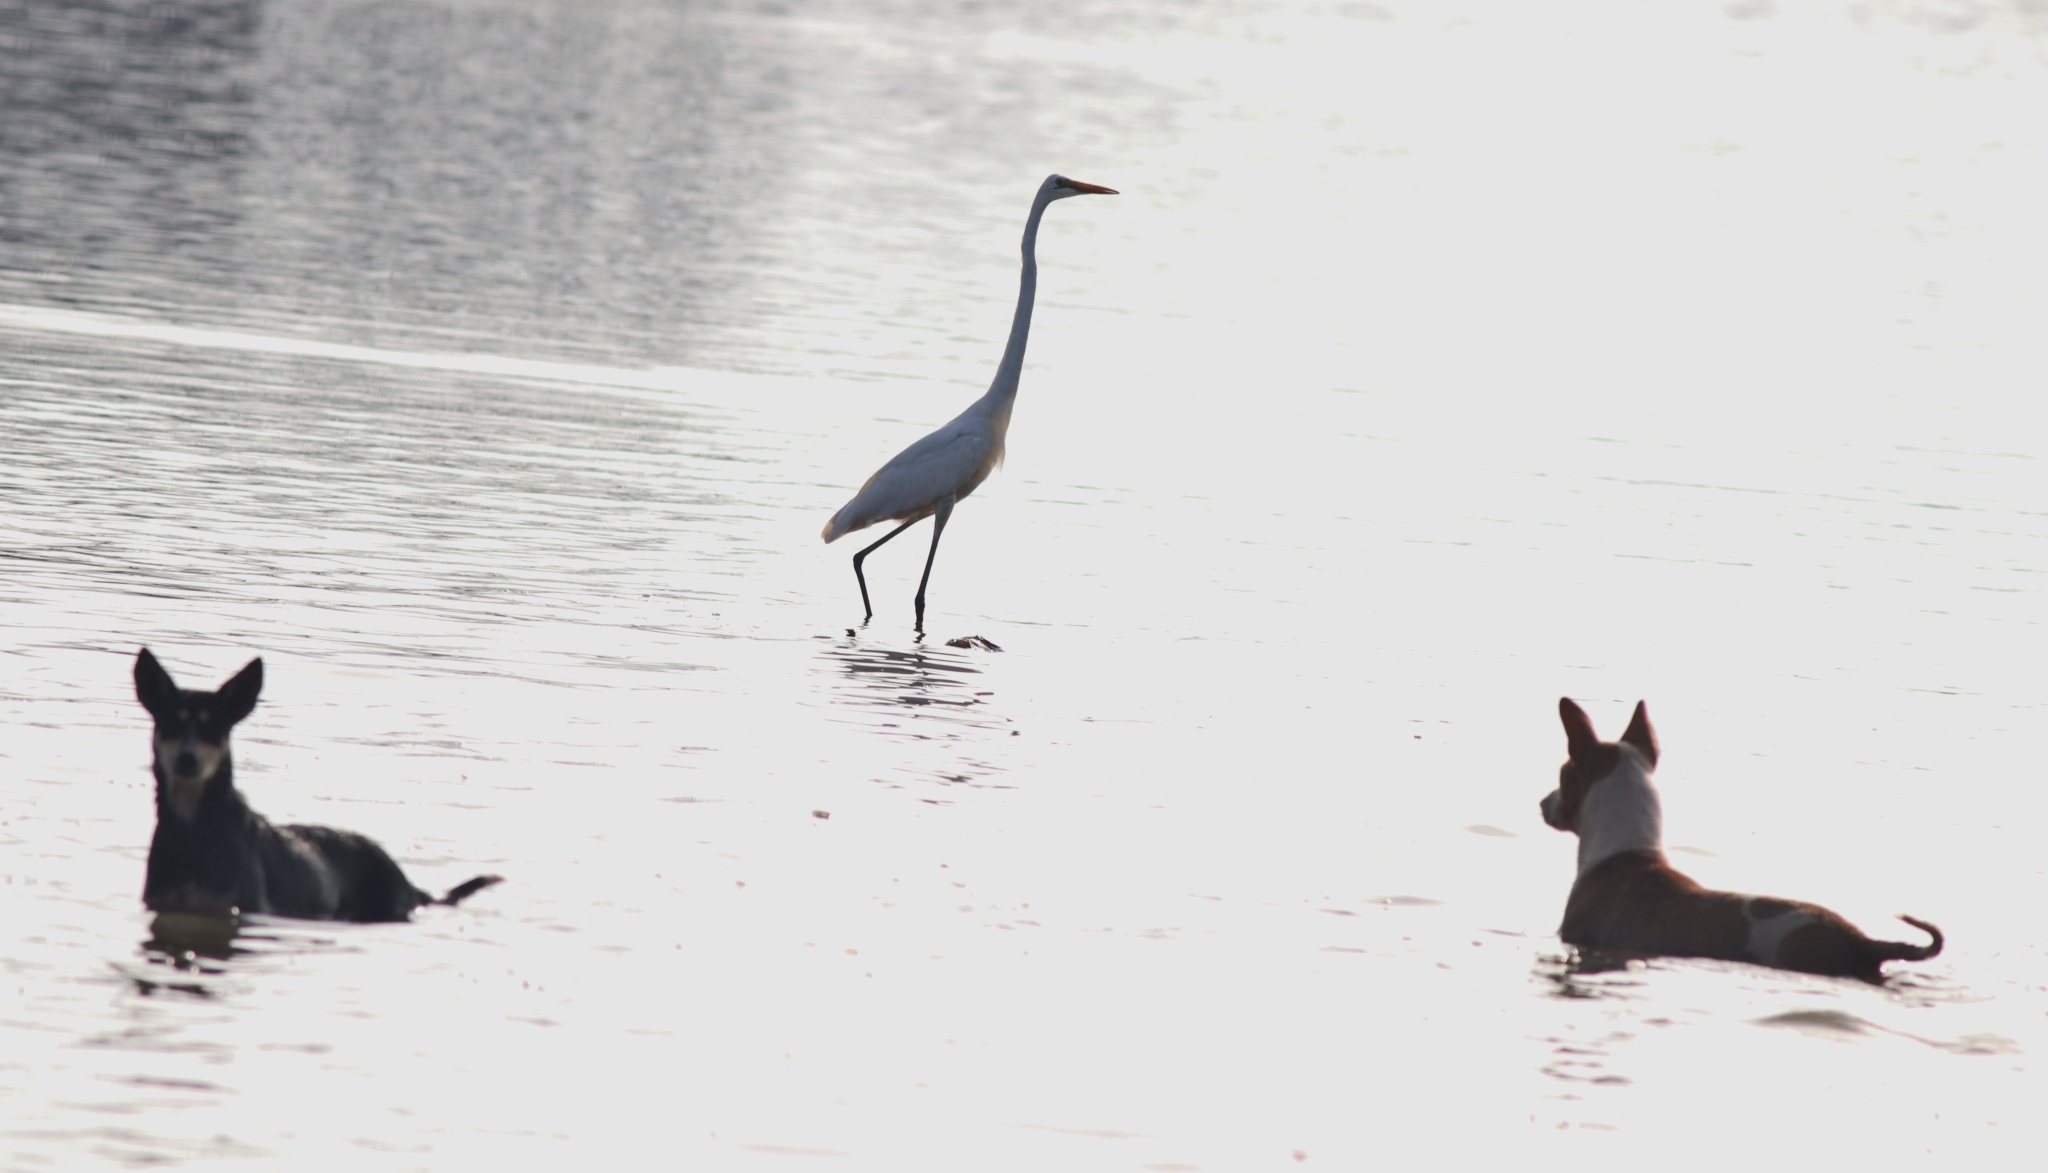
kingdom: Animalia
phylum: Chordata
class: Aves
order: Pelecaniformes
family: Ardeidae
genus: Ardea
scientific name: Ardea alba
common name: Great egret
